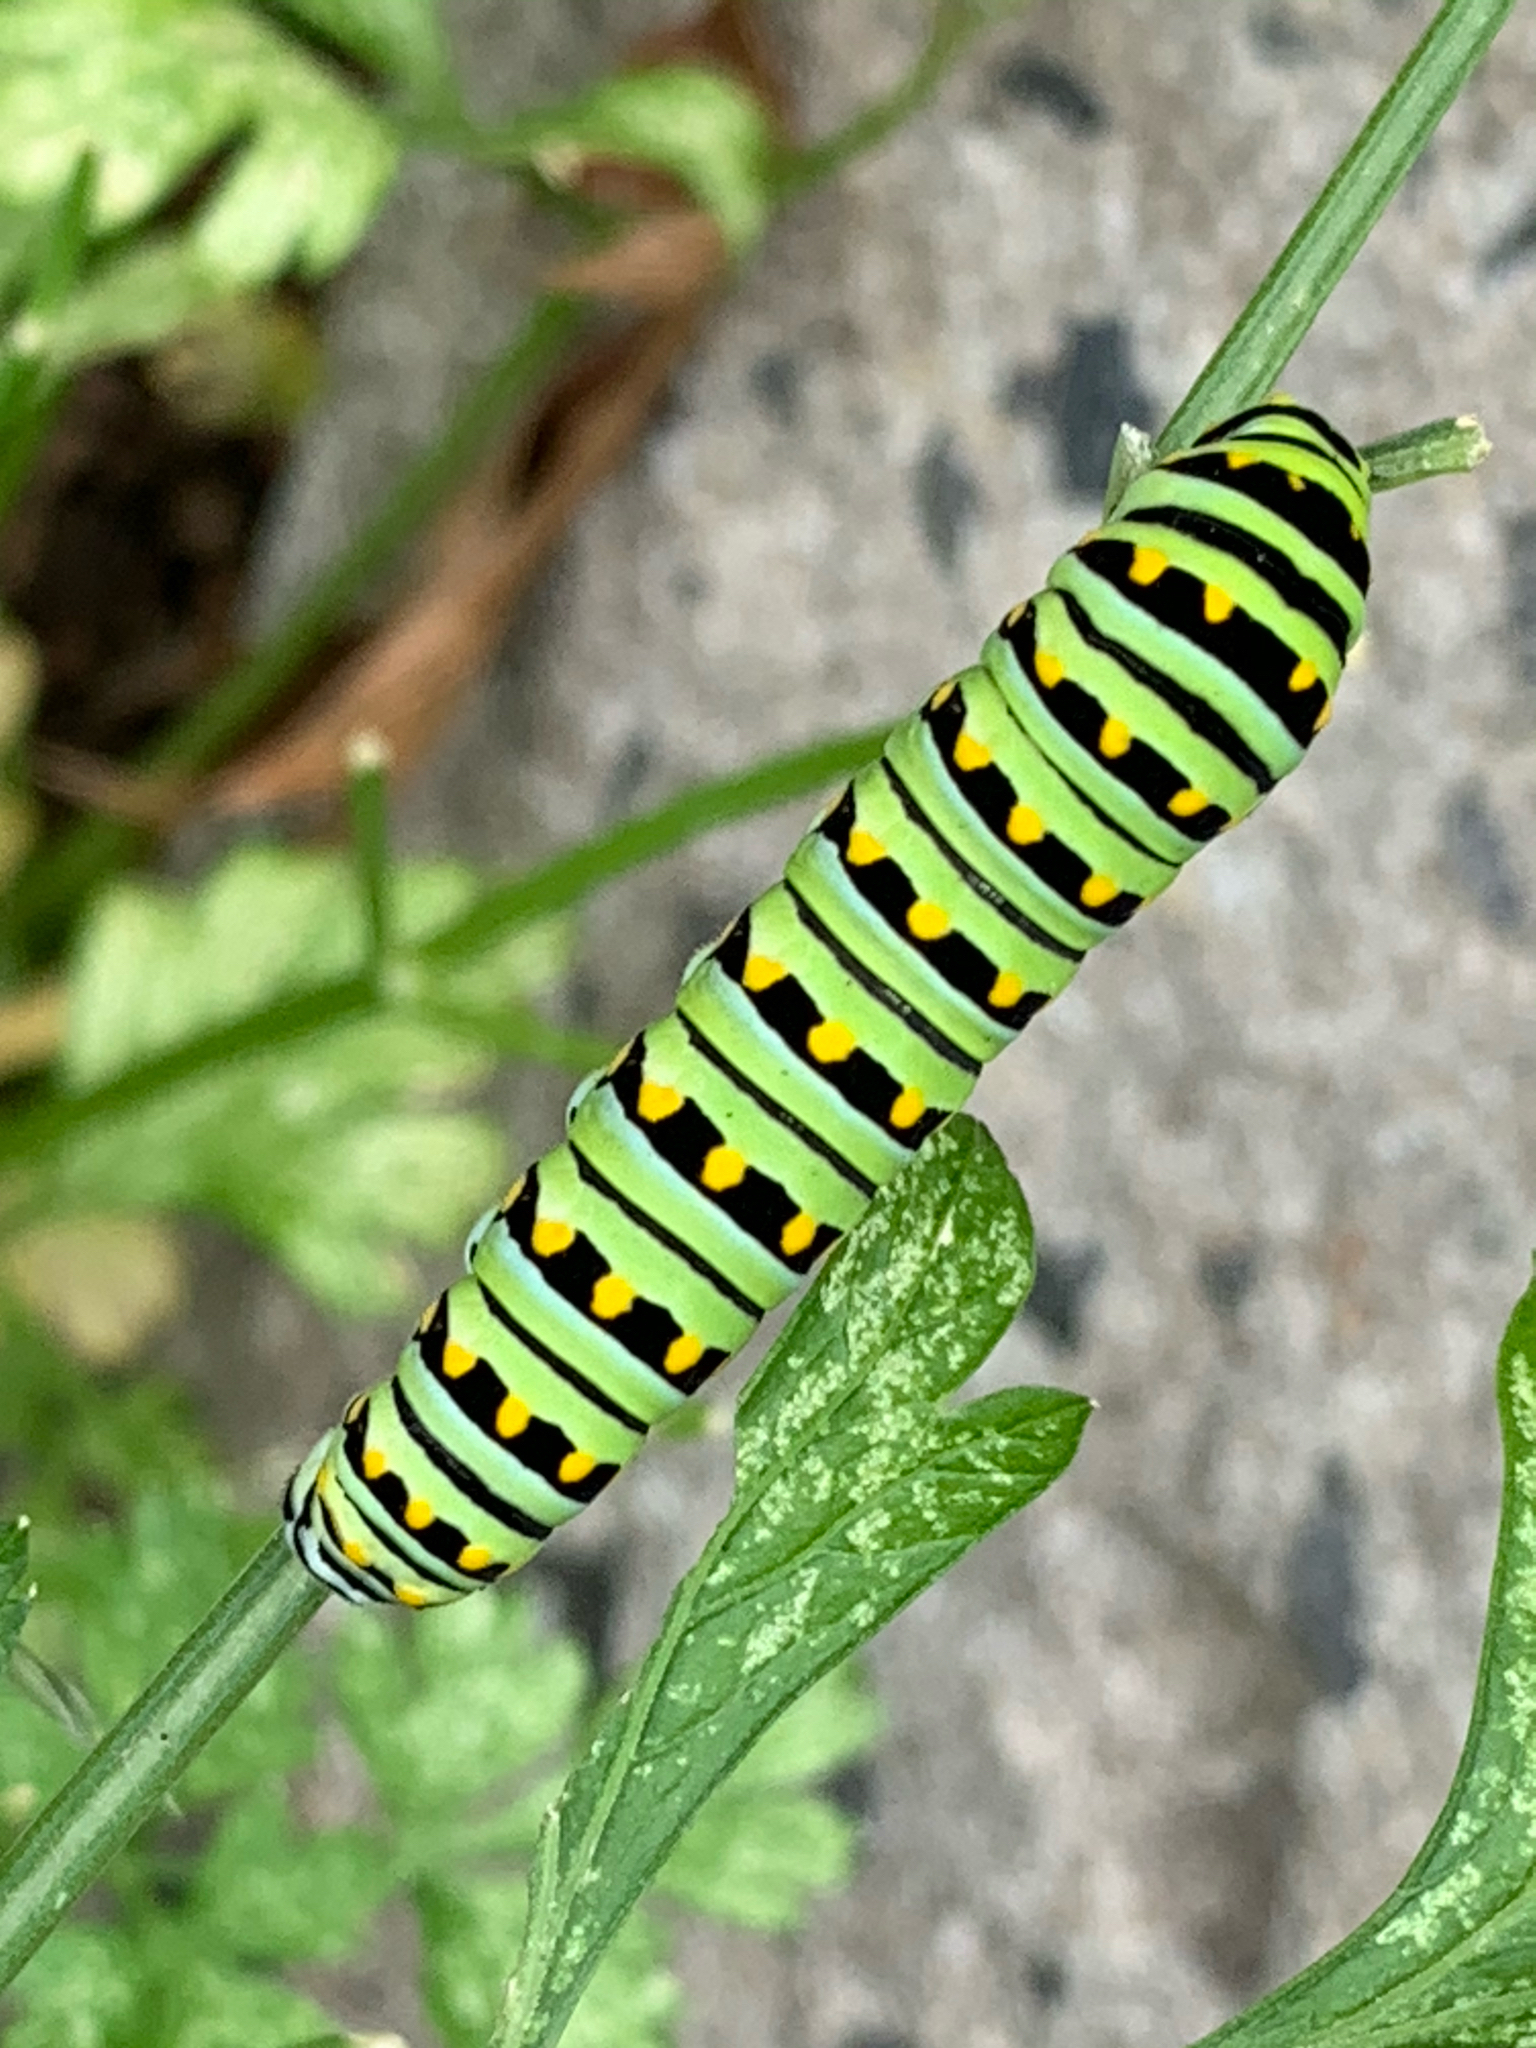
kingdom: Animalia
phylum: Arthropoda
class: Insecta
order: Lepidoptera
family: Papilionidae
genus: Papilio
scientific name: Papilio polyxenes
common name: Black swallowtail
